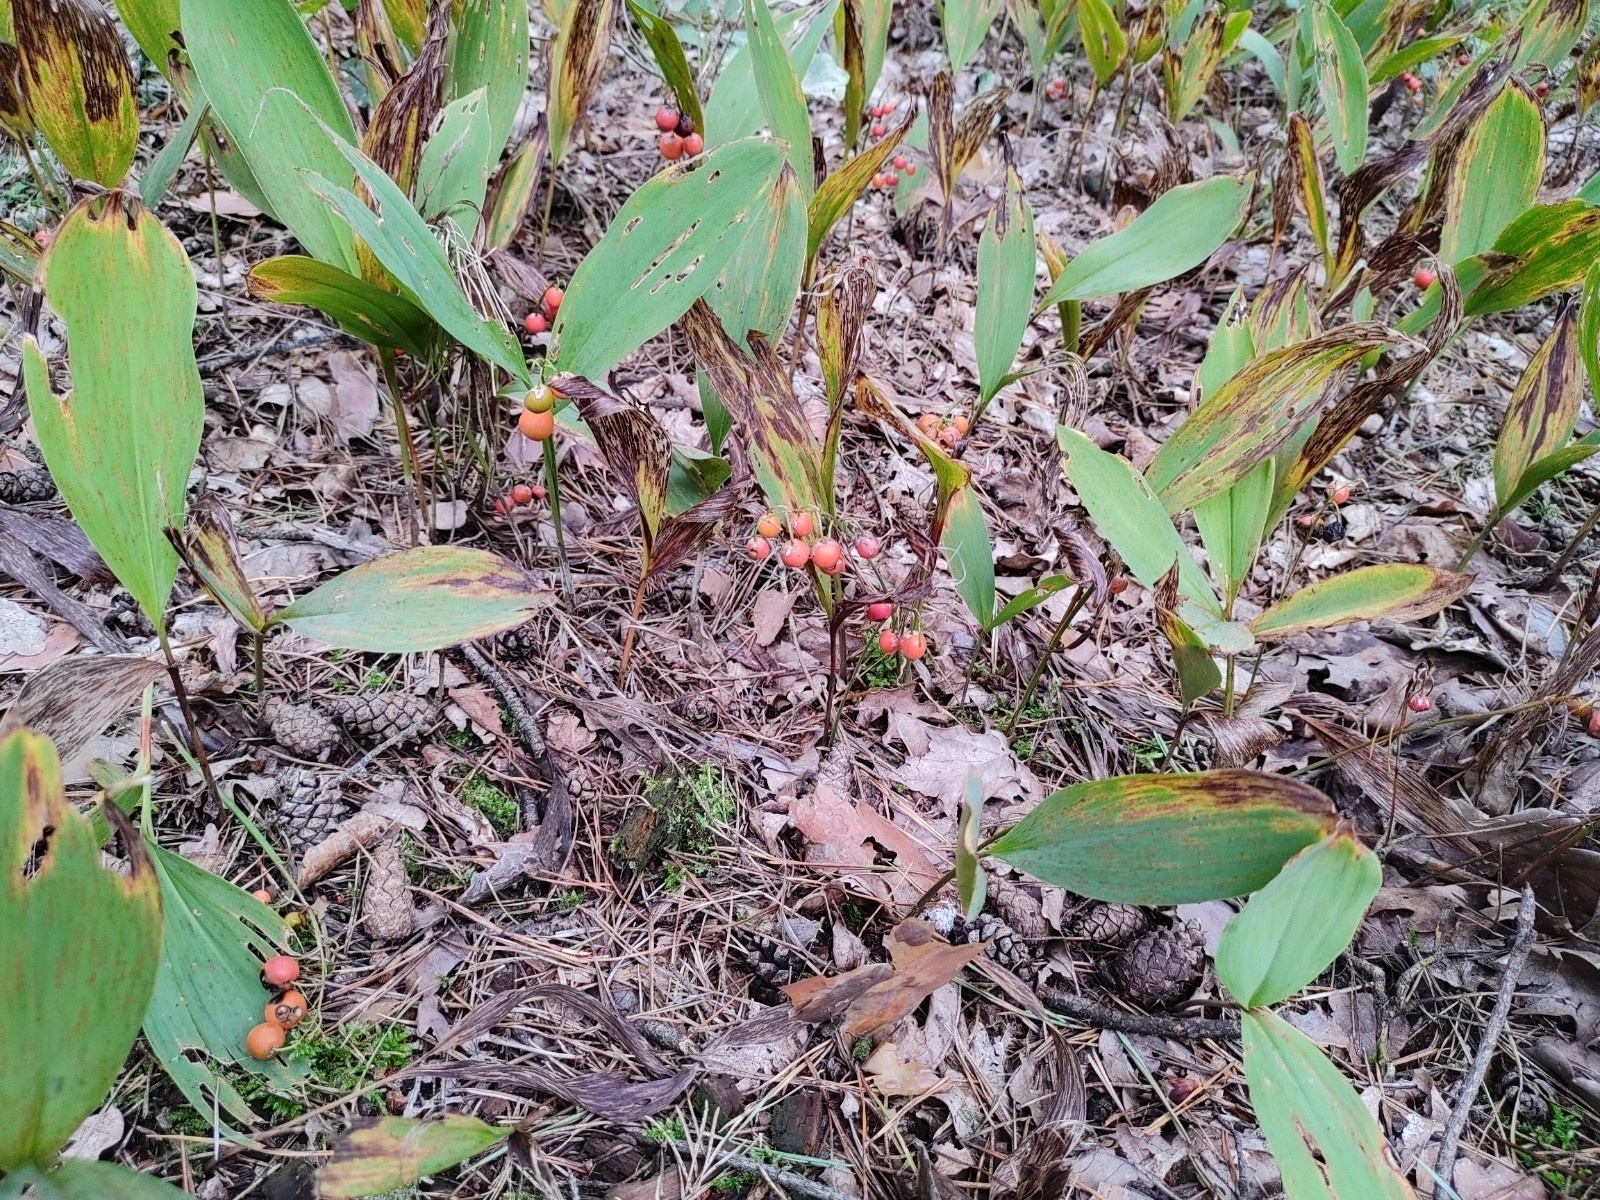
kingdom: Plantae
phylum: Tracheophyta
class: Liliopsida
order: Asparagales
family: Asparagaceae
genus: Convallaria
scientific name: Convallaria majalis
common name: Lily-of-the-valley
